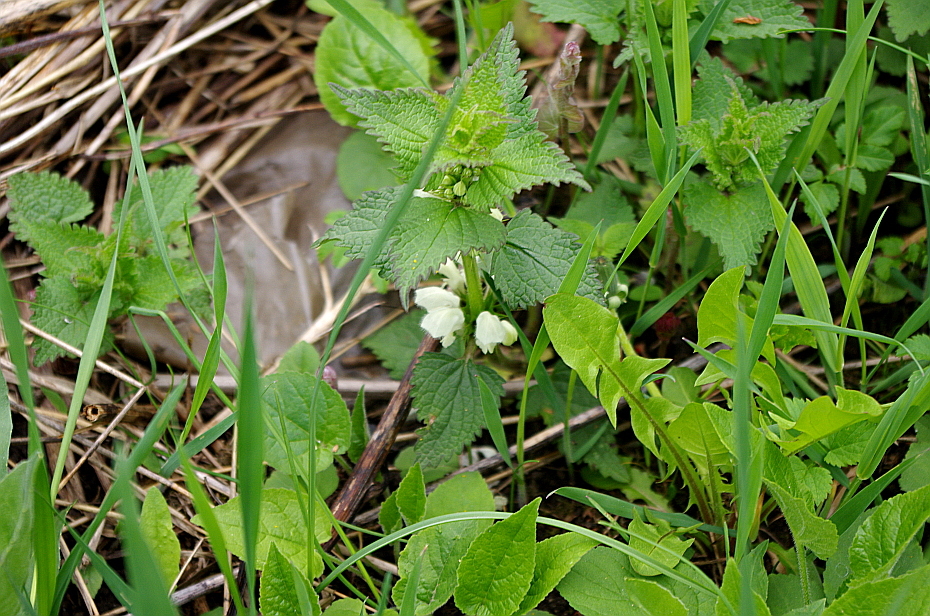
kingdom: Plantae
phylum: Tracheophyta
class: Magnoliopsida
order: Lamiales
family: Lamiaceae
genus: Lamium
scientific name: Lamium album
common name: White dead-nettle
